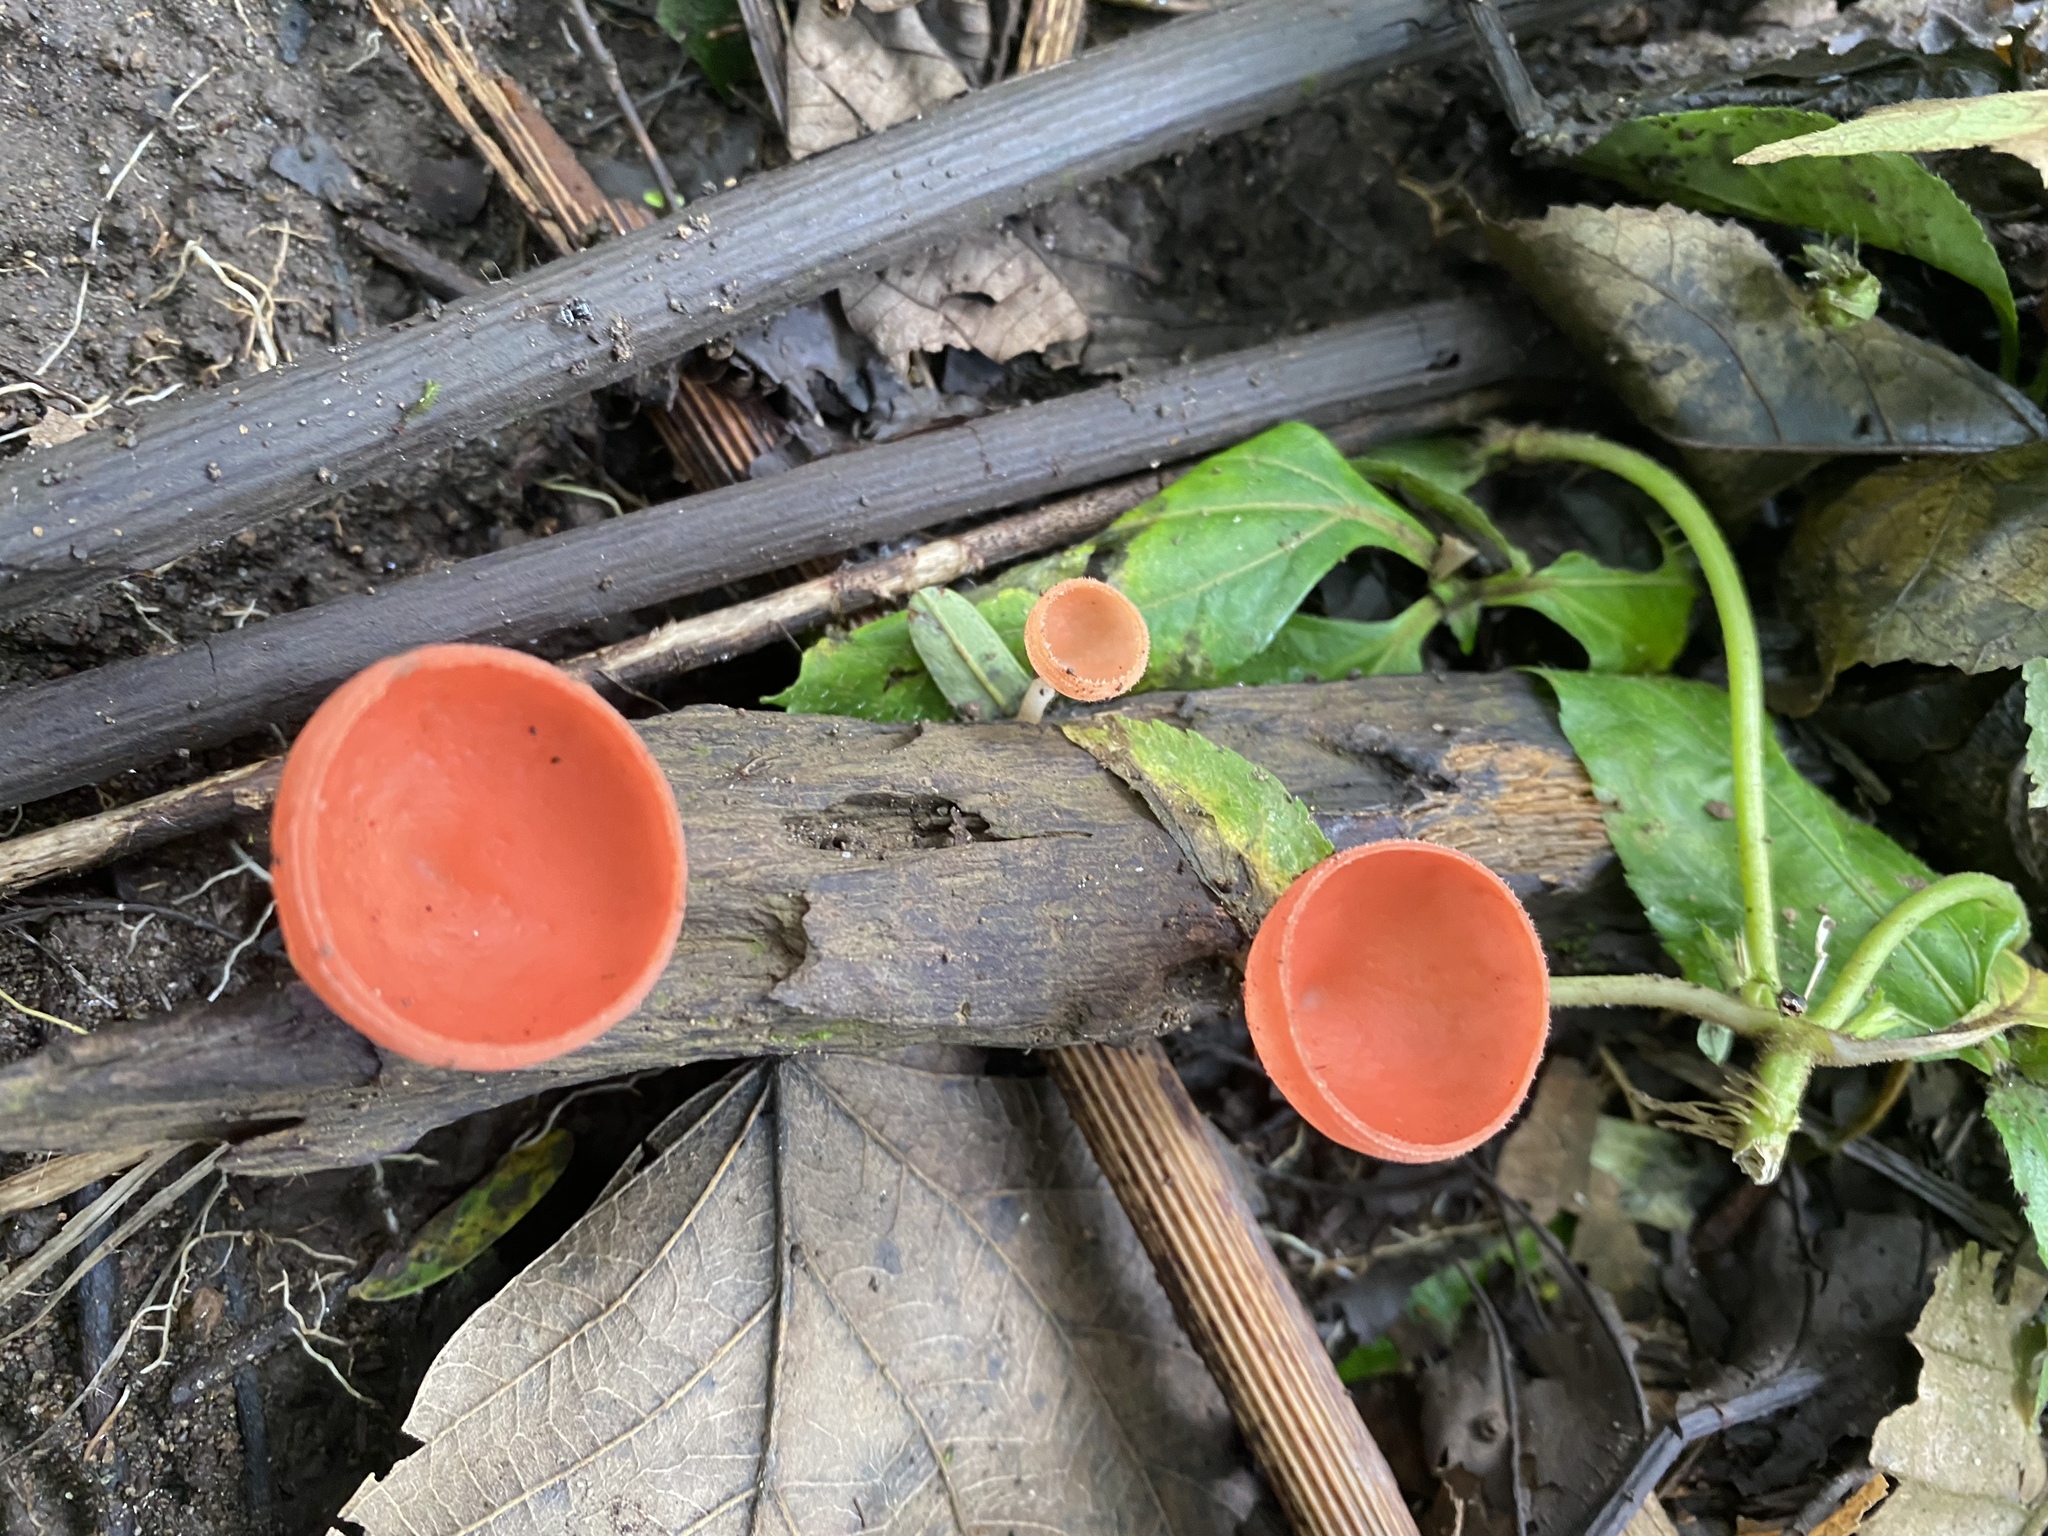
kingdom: Fungi
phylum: Ascomycota
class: Pezizomycetes
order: Pezizales
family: Sarcoscyphaceae
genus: Cookeina
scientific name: Cookeina speciosa
